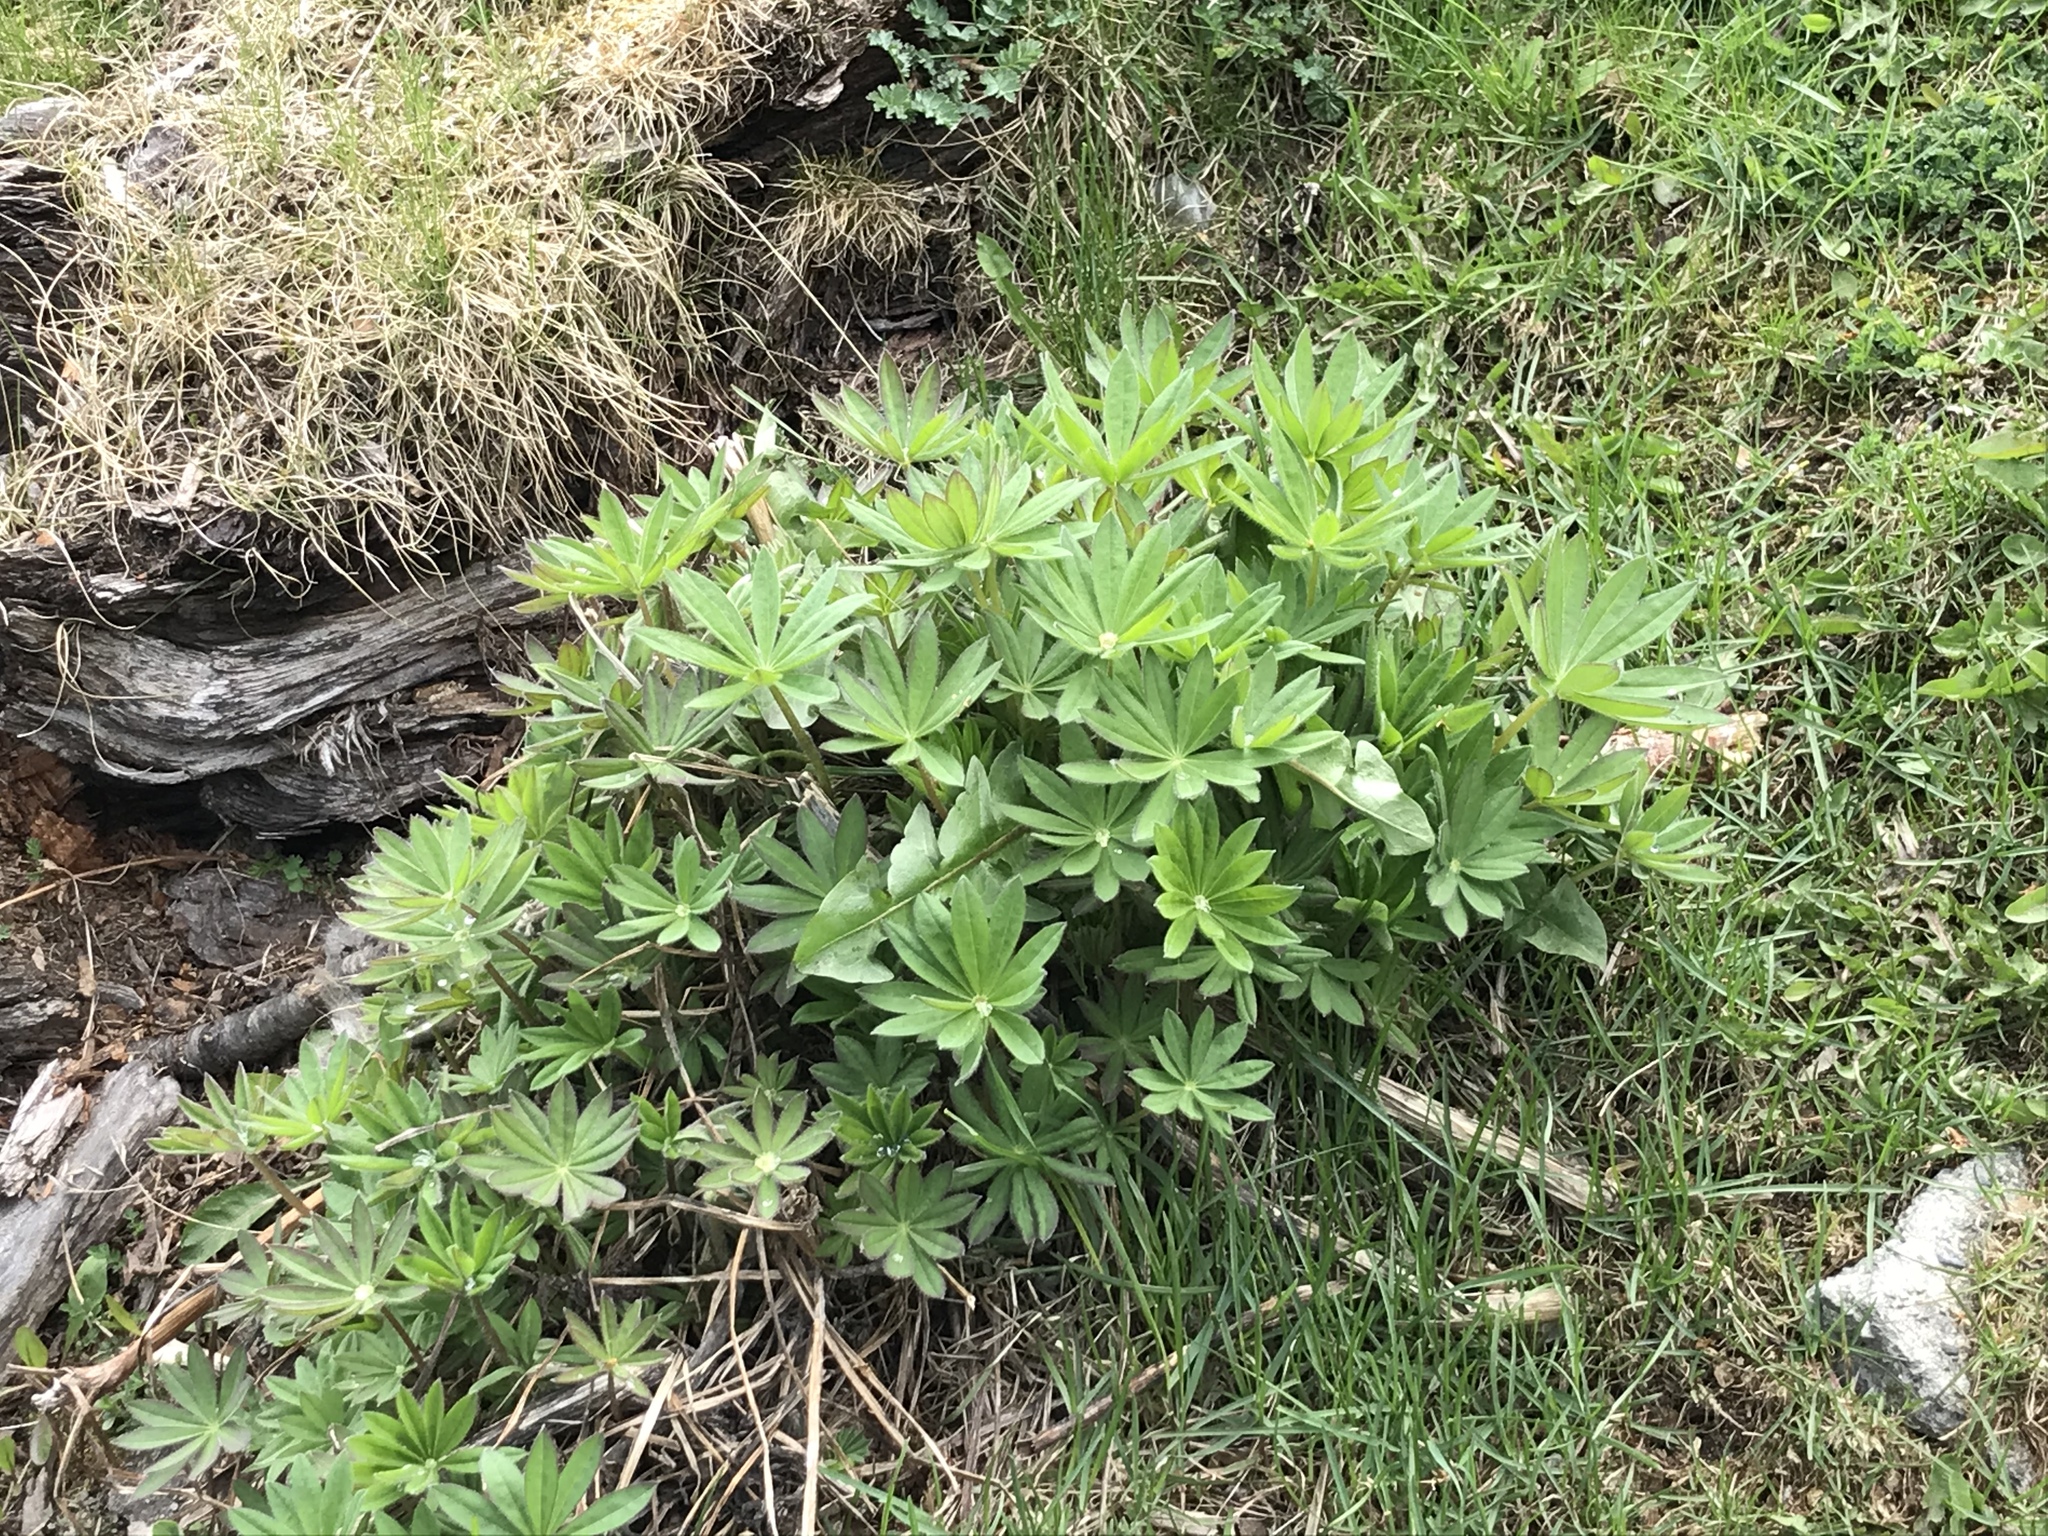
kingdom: Plantae
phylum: Tracheophyta
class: Magnoliopsida
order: Fabales
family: Fabaceae
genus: Lupinus
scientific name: Lupinus polyphyllus
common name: Garden lupin
